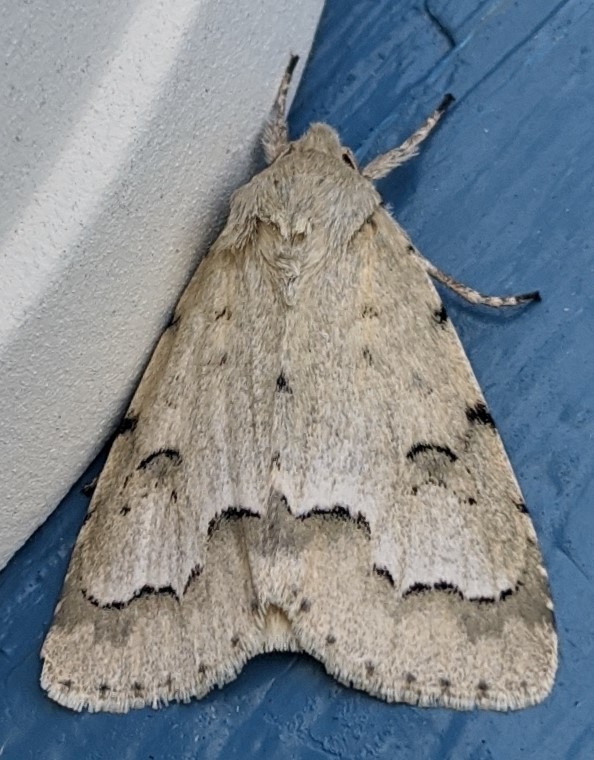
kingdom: Animalia
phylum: Arthropoda
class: Insecta
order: Lepidoptera
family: Noctuidae
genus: Acronicta
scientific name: Acronicta innotata
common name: Unmarked dagger
